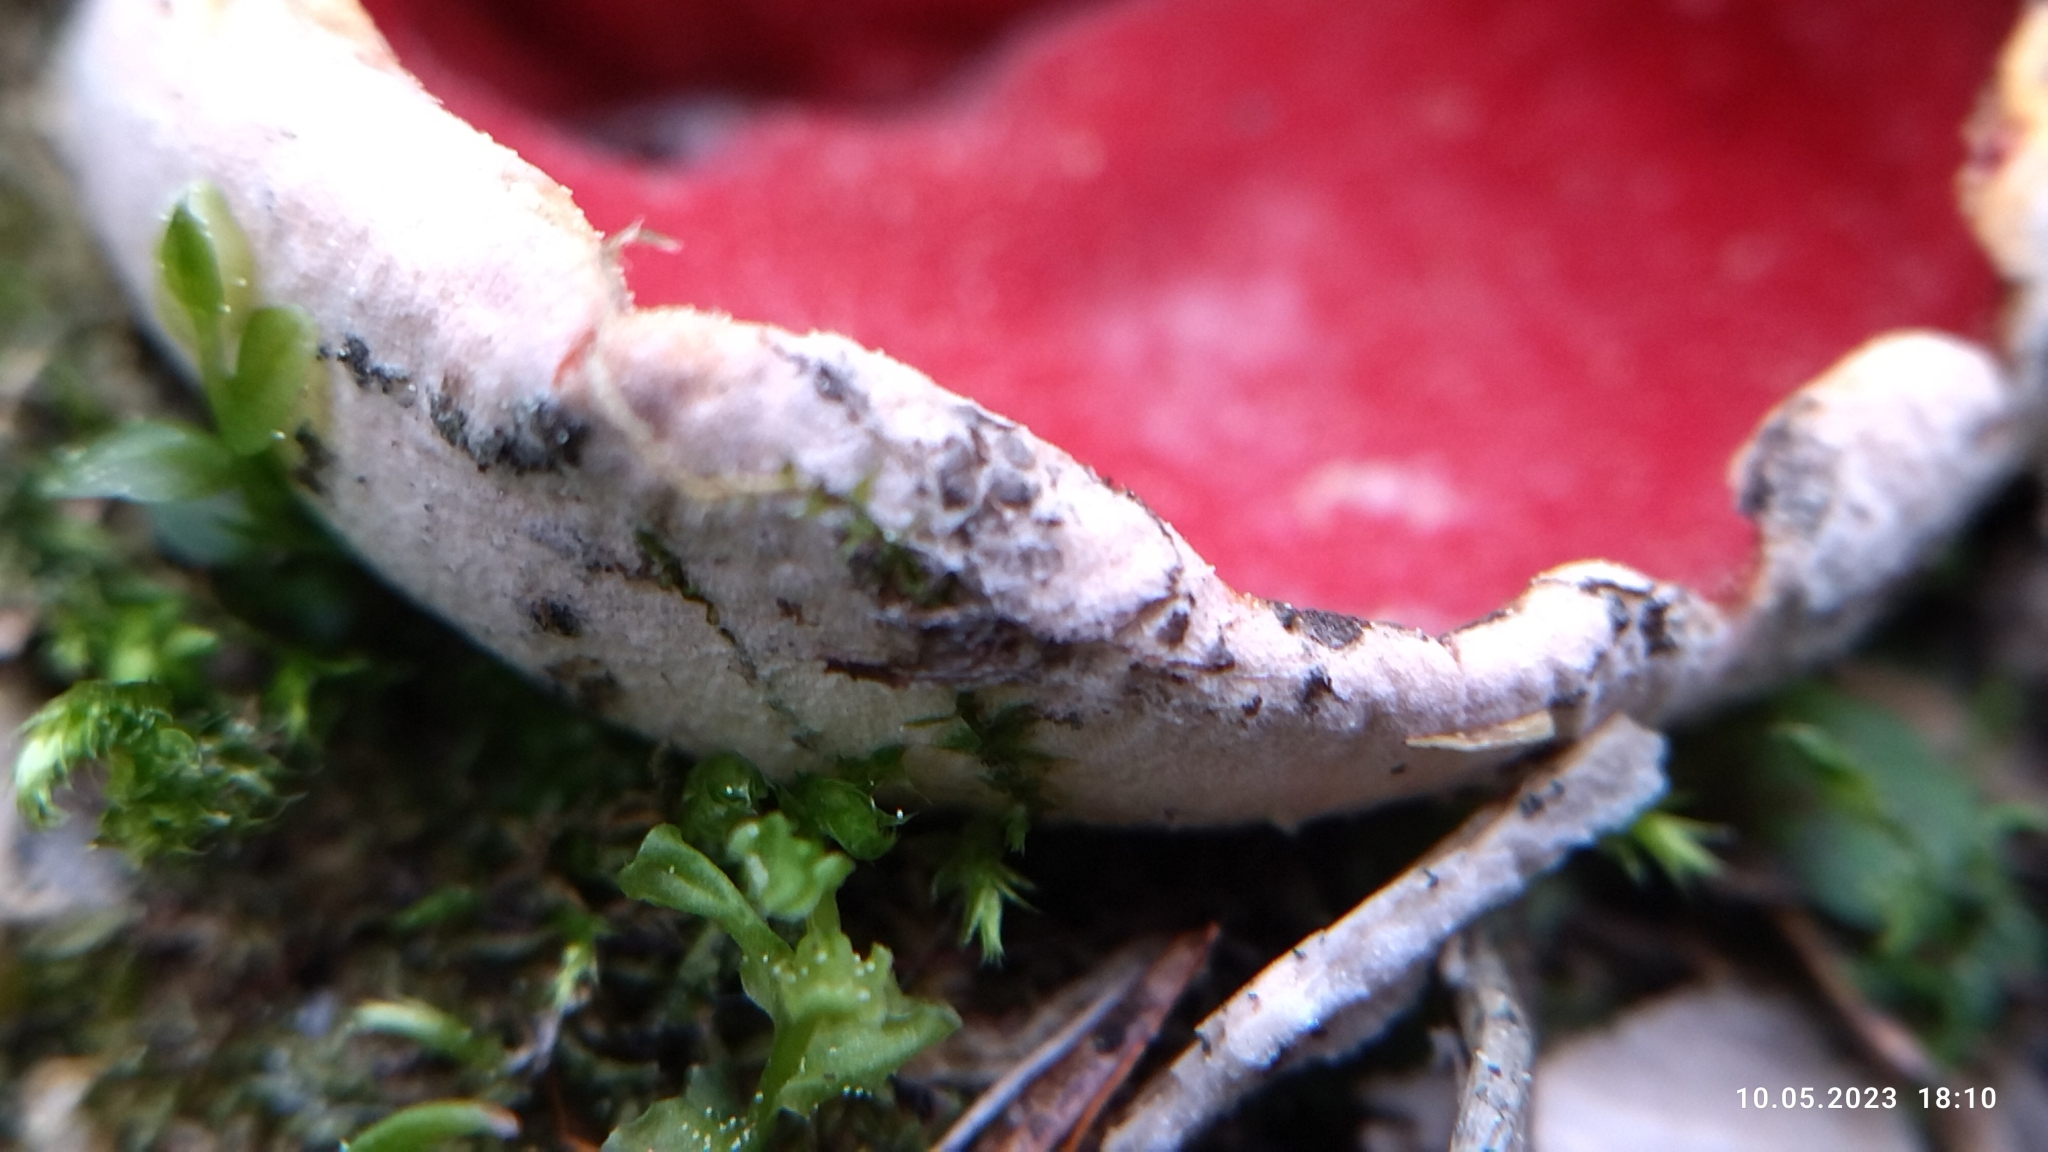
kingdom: Fungi
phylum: Ascomycota
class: Pezizomycetes
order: Pezizales
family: Sarcoscyphaceae
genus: Sarcoscypha
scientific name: Sarcoscypha austriaca
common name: Scarlet elfcup
